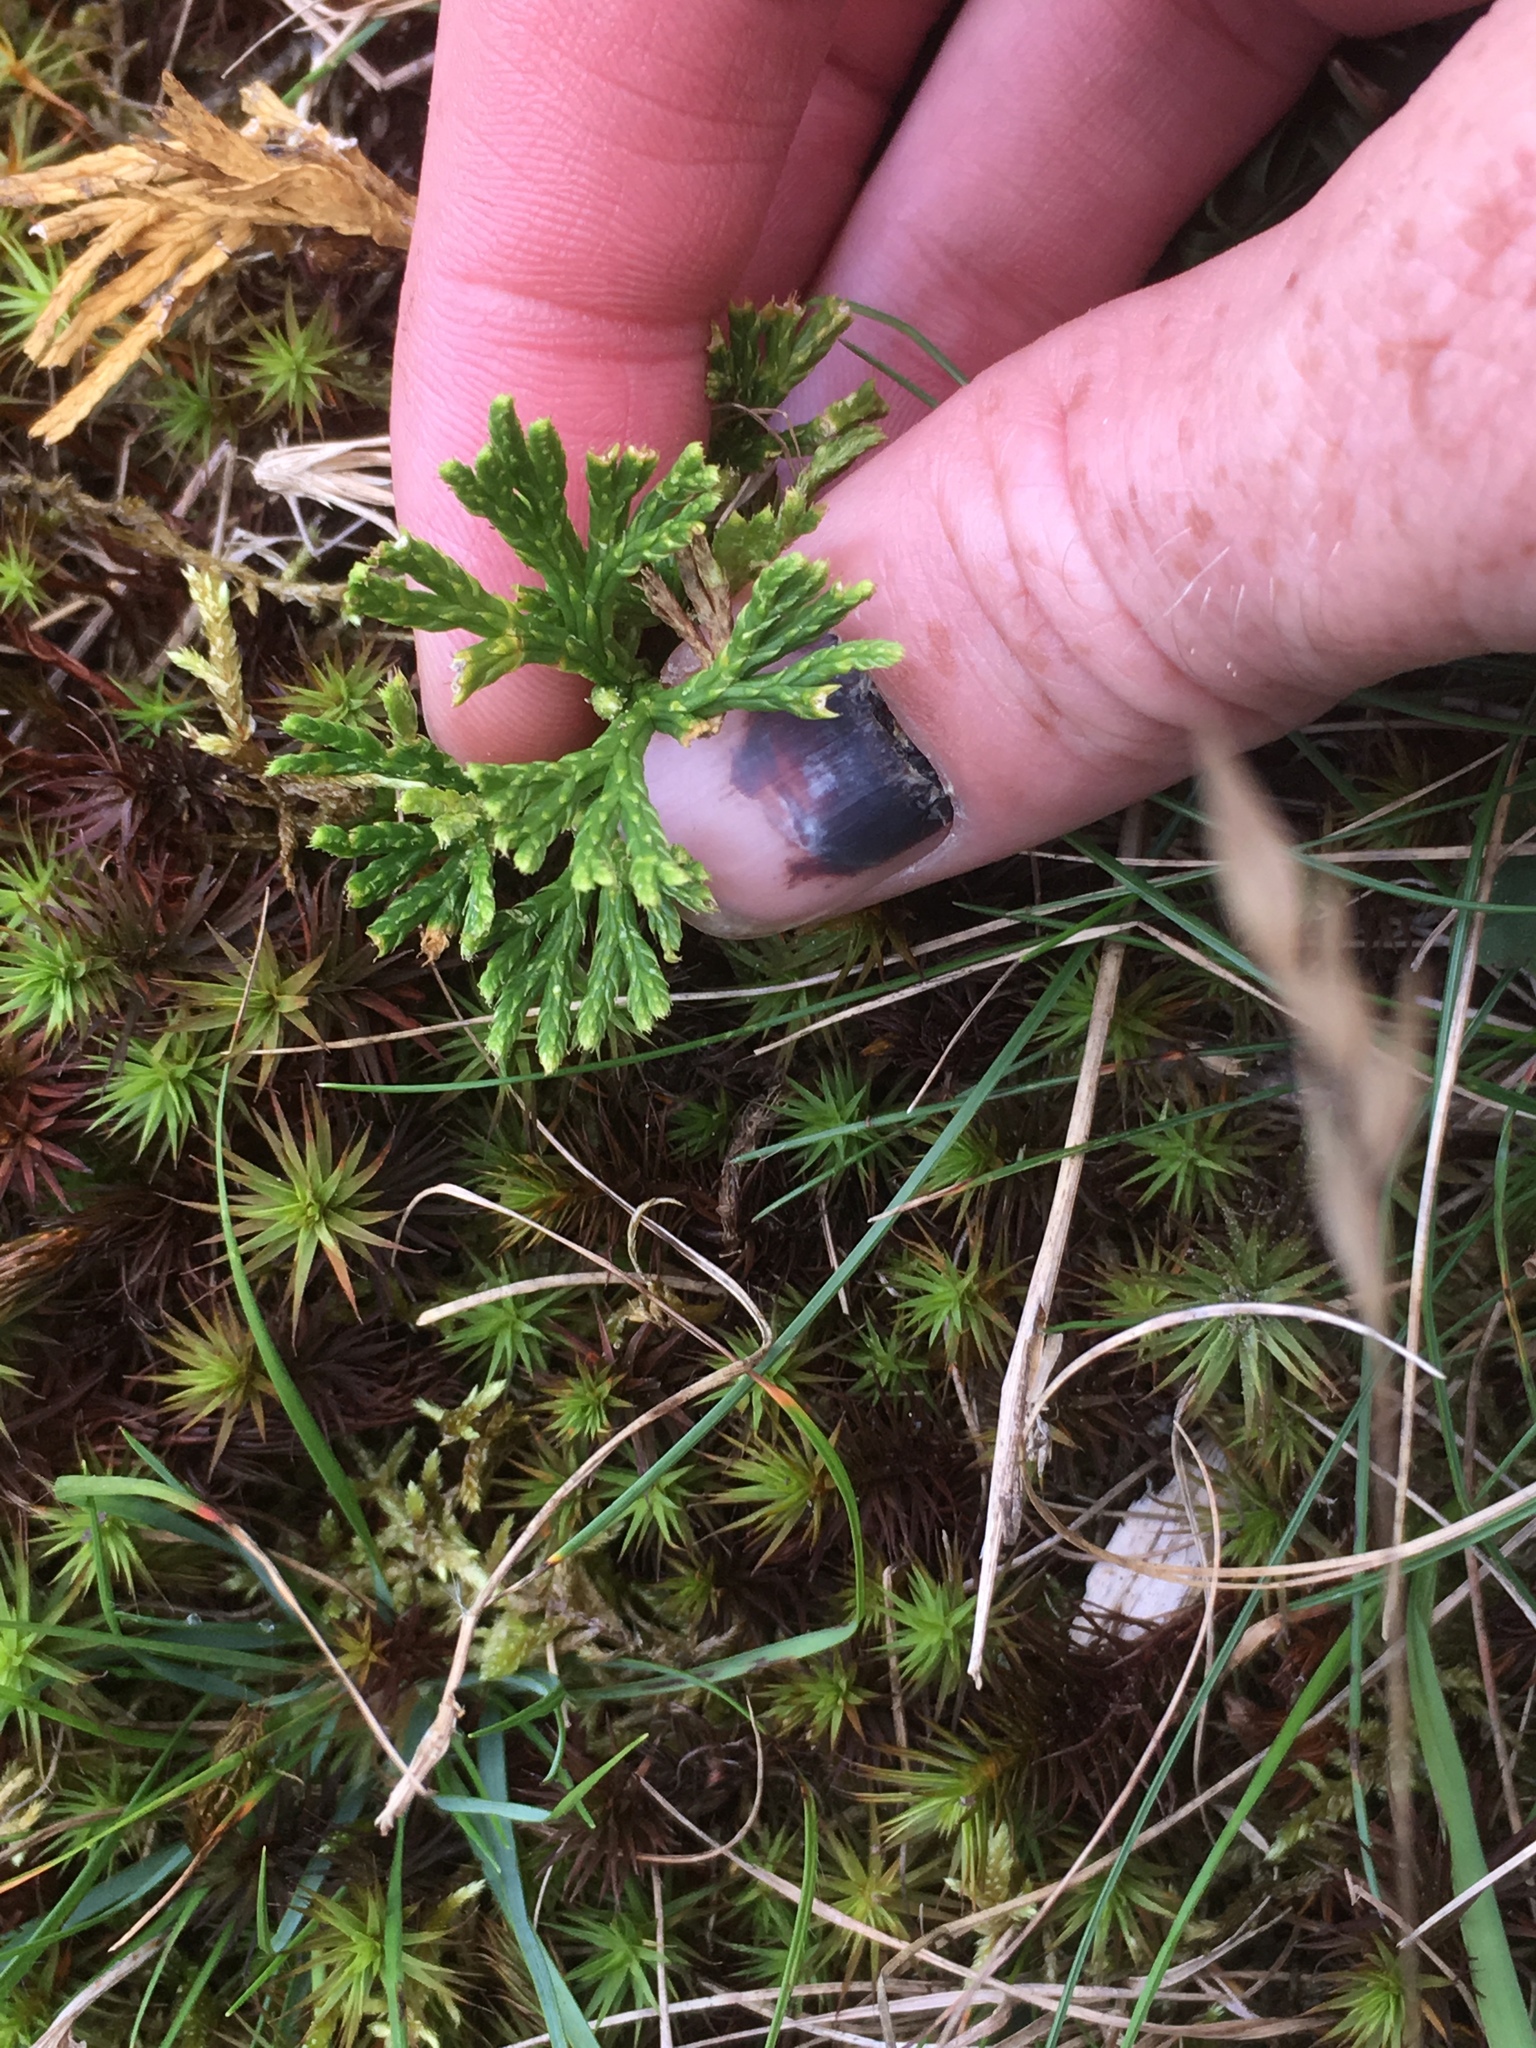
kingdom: Plantae
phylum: Tracheophyta
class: Lycopodiopsida
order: Lycopodiales
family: Lycopodiaceae
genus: Diphasiastrum
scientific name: Diphasiastrum tristachyum
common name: Blue ground-cedar
